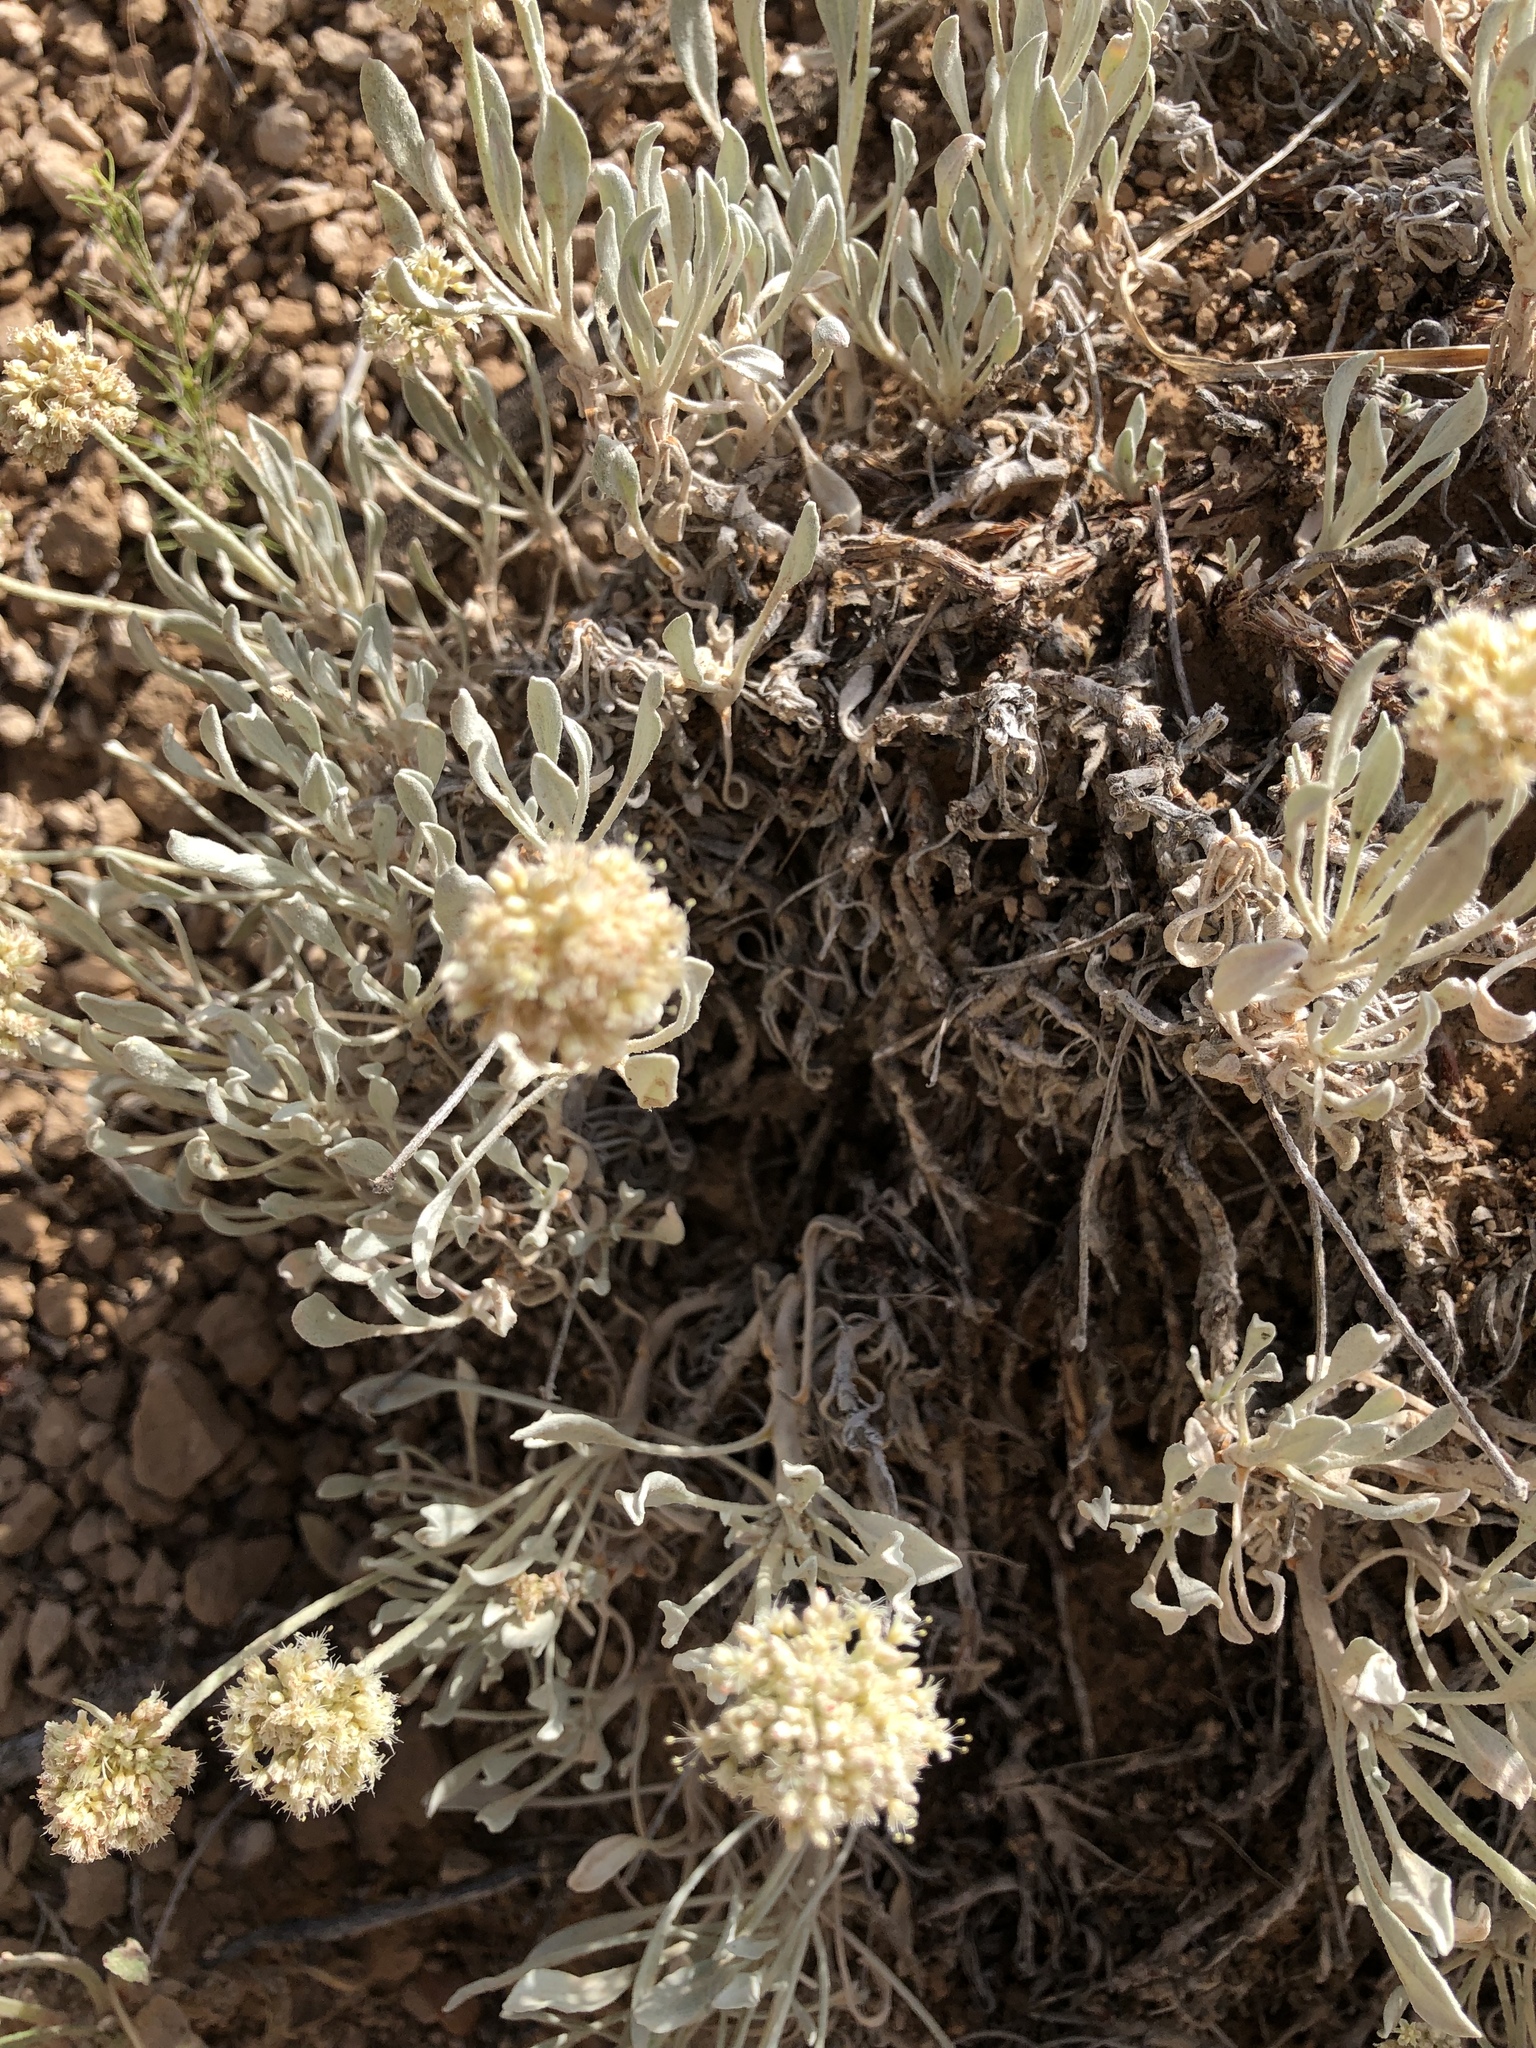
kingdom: Plantae
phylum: Tracheophyta
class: Magnoliopsida
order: Caryophyllales
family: Polygonaceae
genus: Eriogonum
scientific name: Eriogonum pauciflorum
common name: Few-flower wild buckwheat
